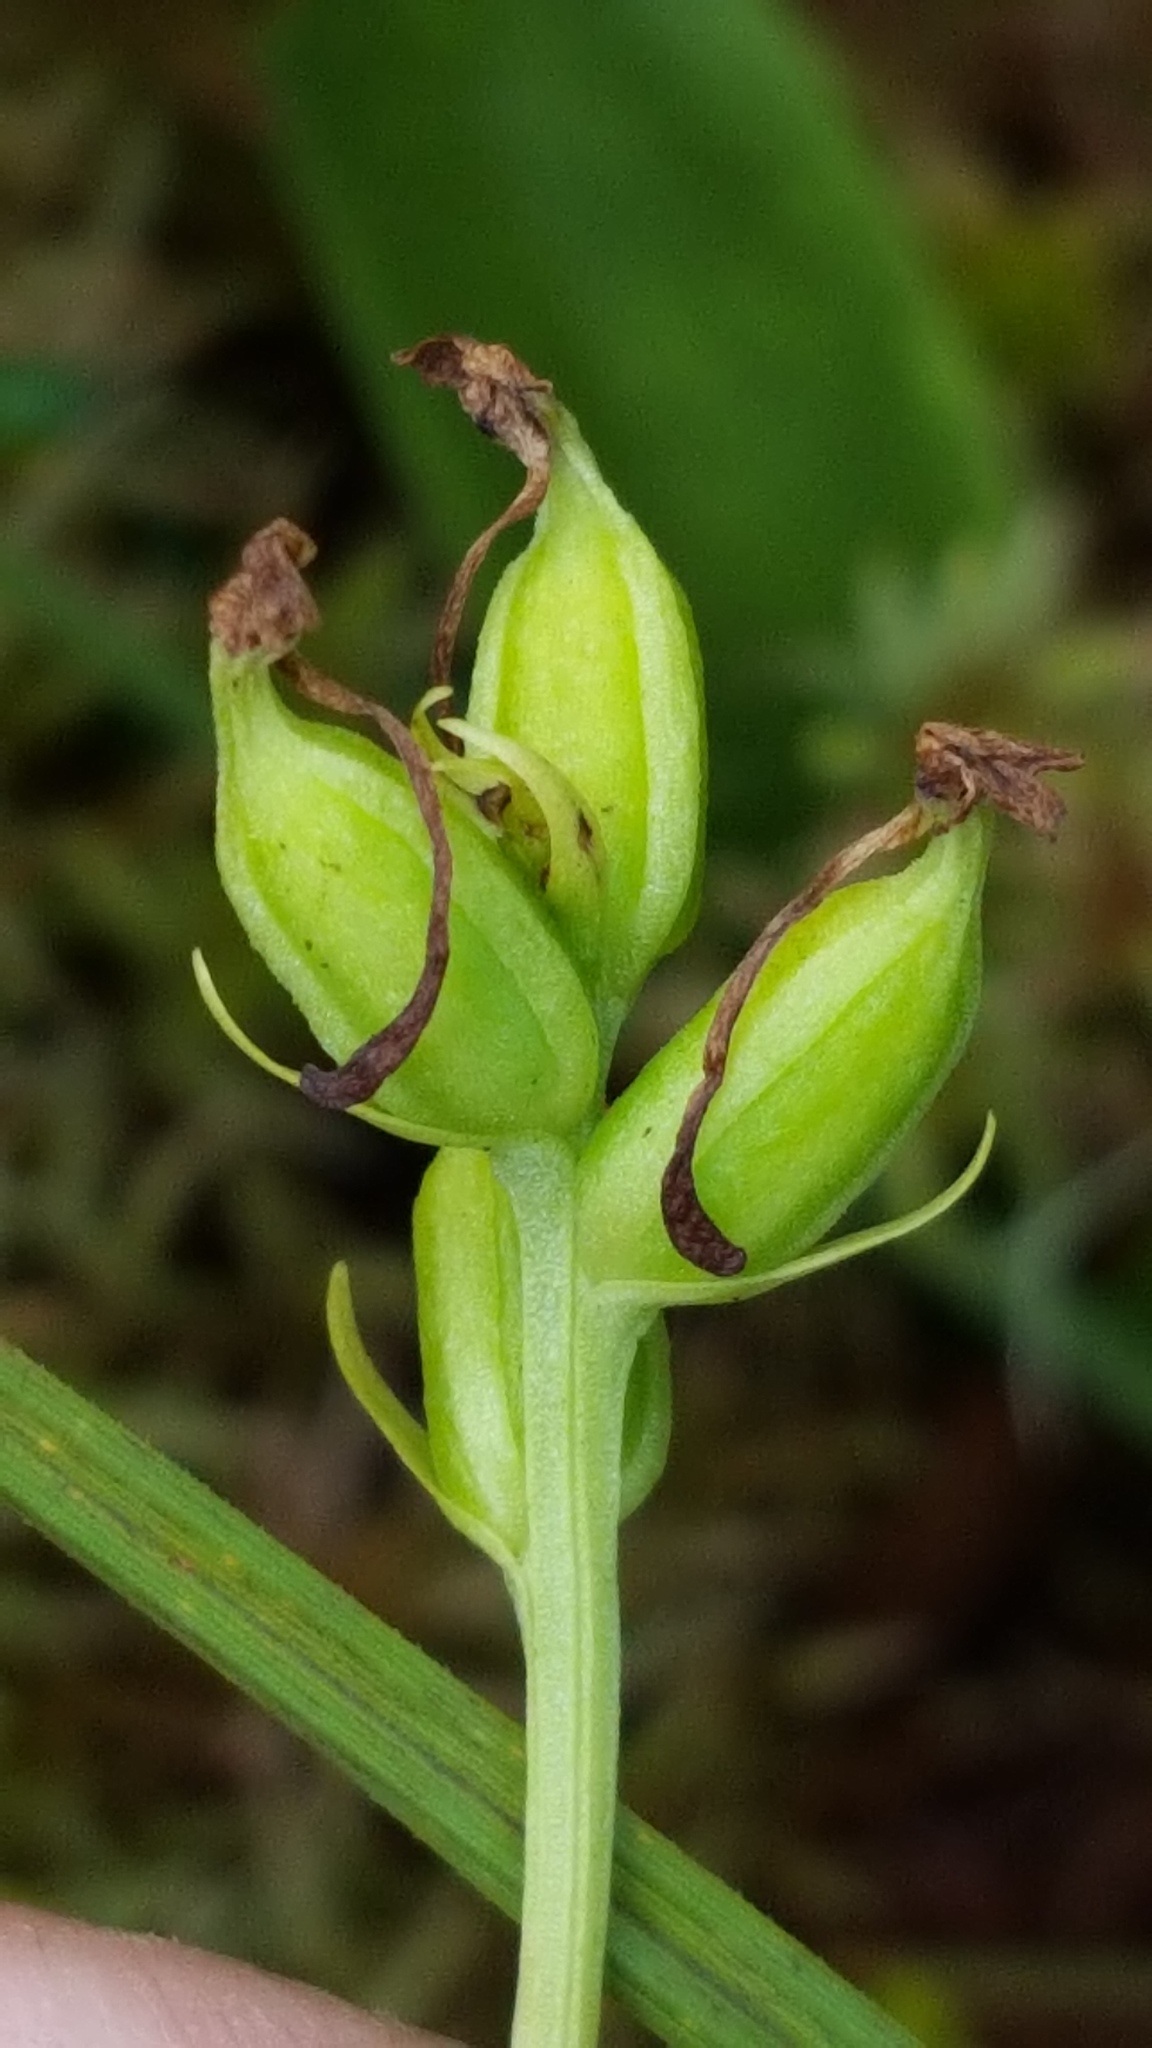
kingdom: Plantae
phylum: Tracheophyta
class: Liliopsida
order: Asparagales
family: Orchidaceae
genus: Platanthera
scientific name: Platanthera clavellata
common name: Club-spur orchid
